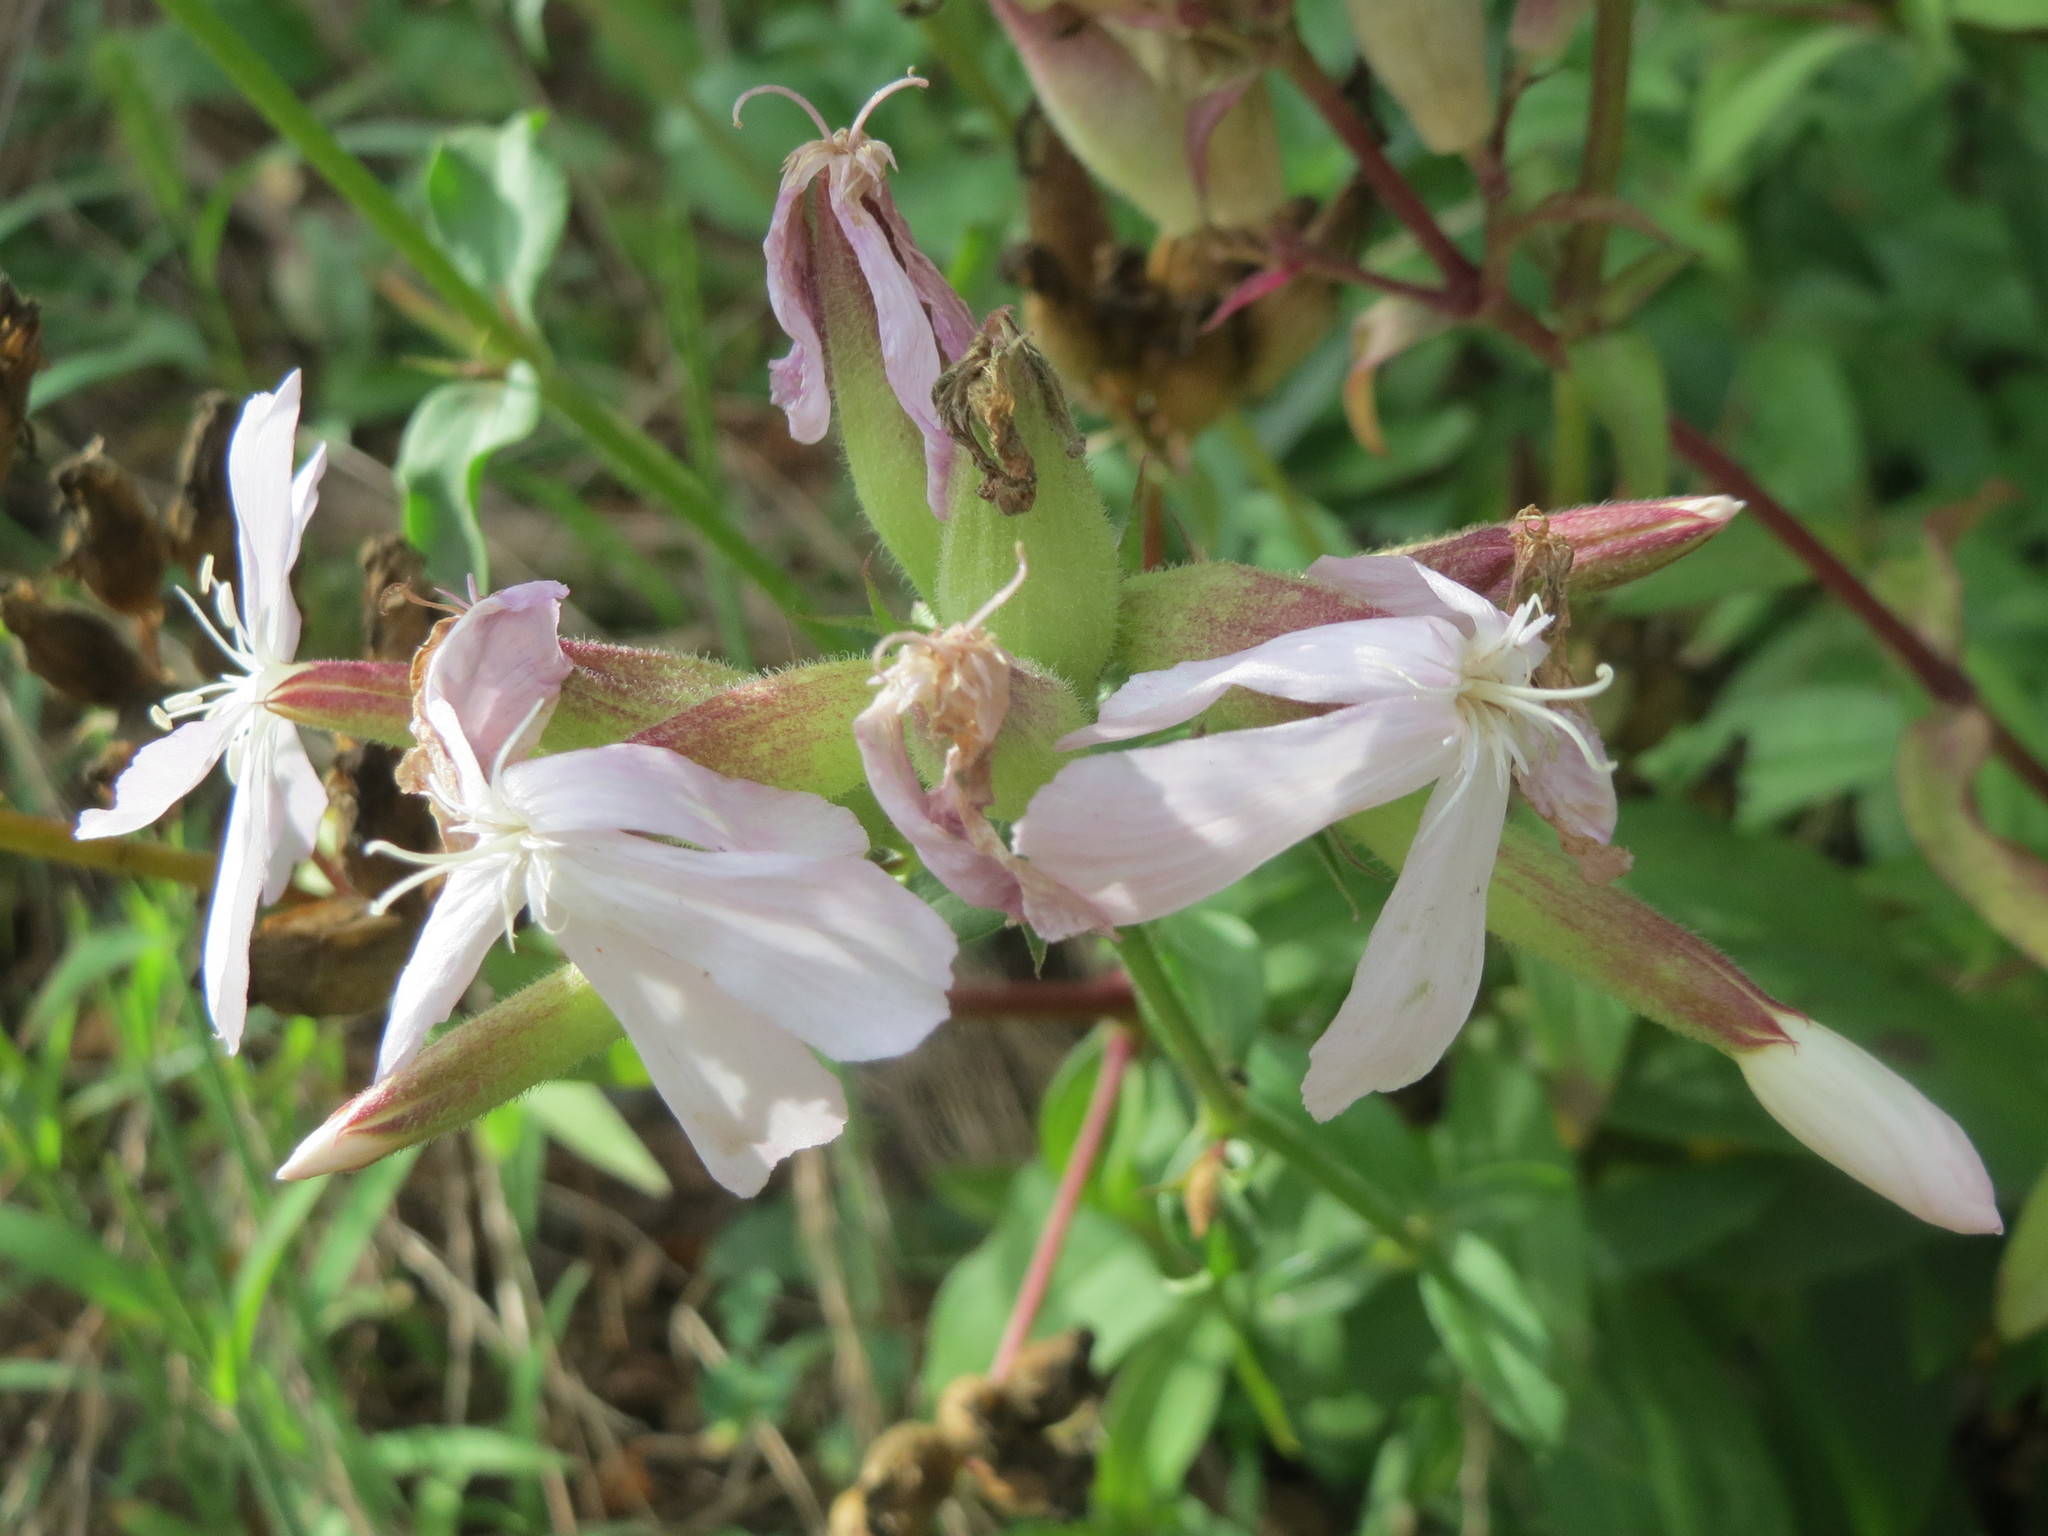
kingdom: Plantae
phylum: Tracheophyta
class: Magnoliopsida
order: Caryophyllales
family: Caryophyllaceae
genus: Saponaria
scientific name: Saponaria officinalis
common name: Soapwort
